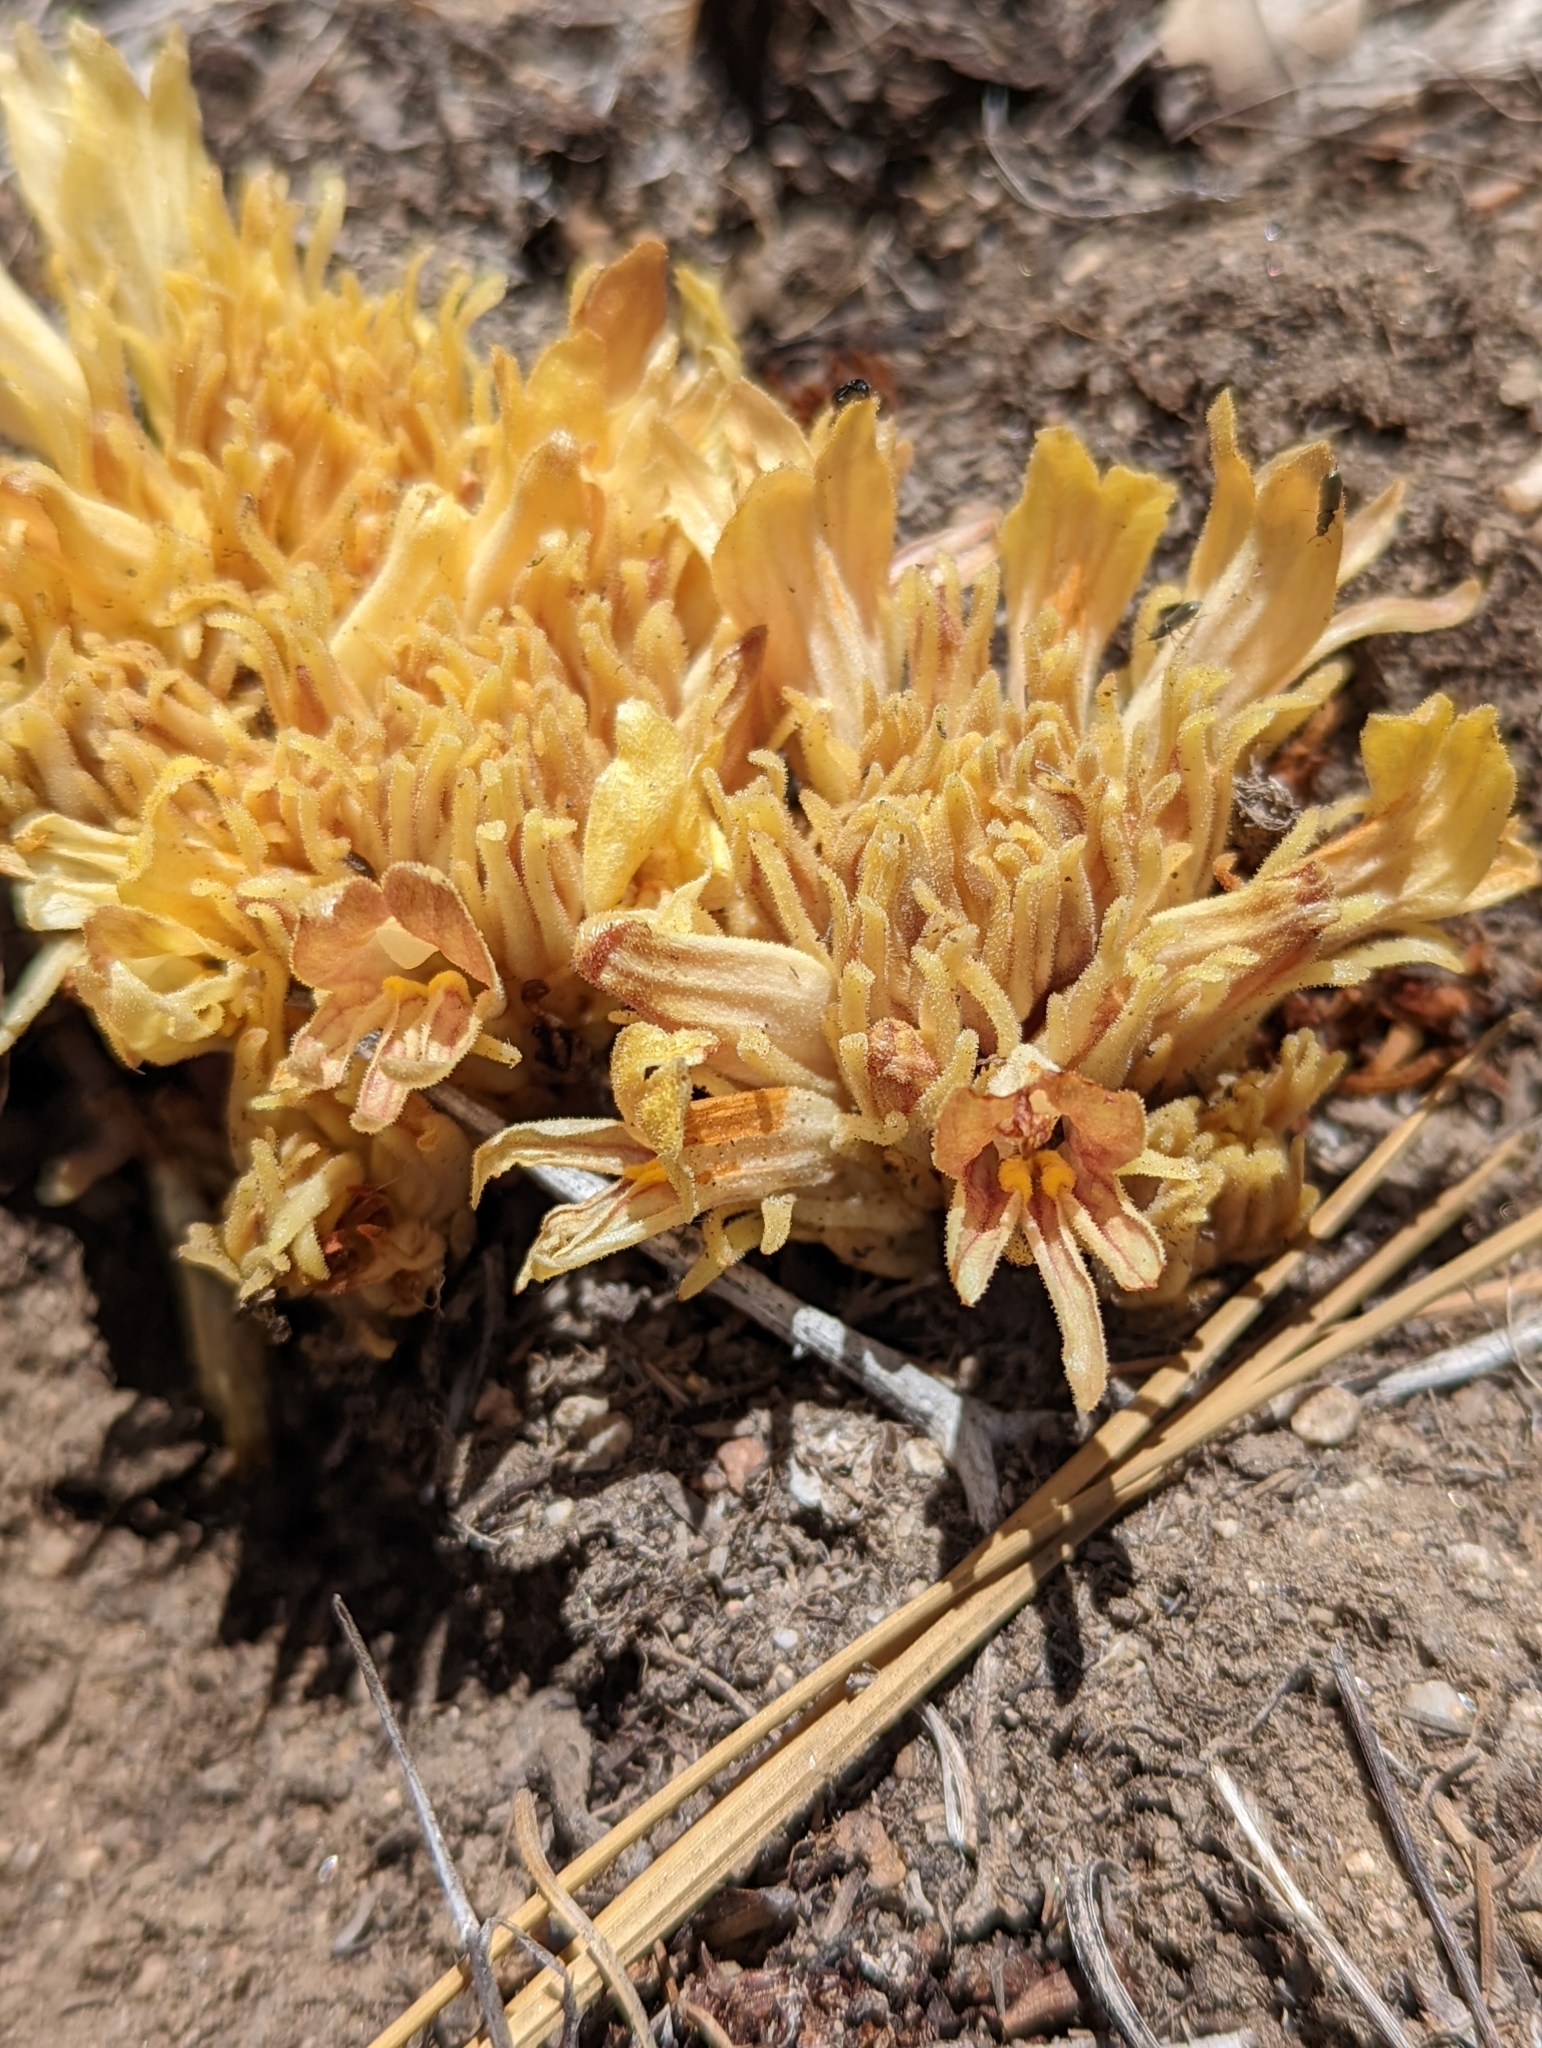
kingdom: Plantae
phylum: Tracheophyta
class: Magnoliopsida
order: Lamiales
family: Orobanchaceae
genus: Aphyllon
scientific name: Aphyllon californicum
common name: California broomrape
